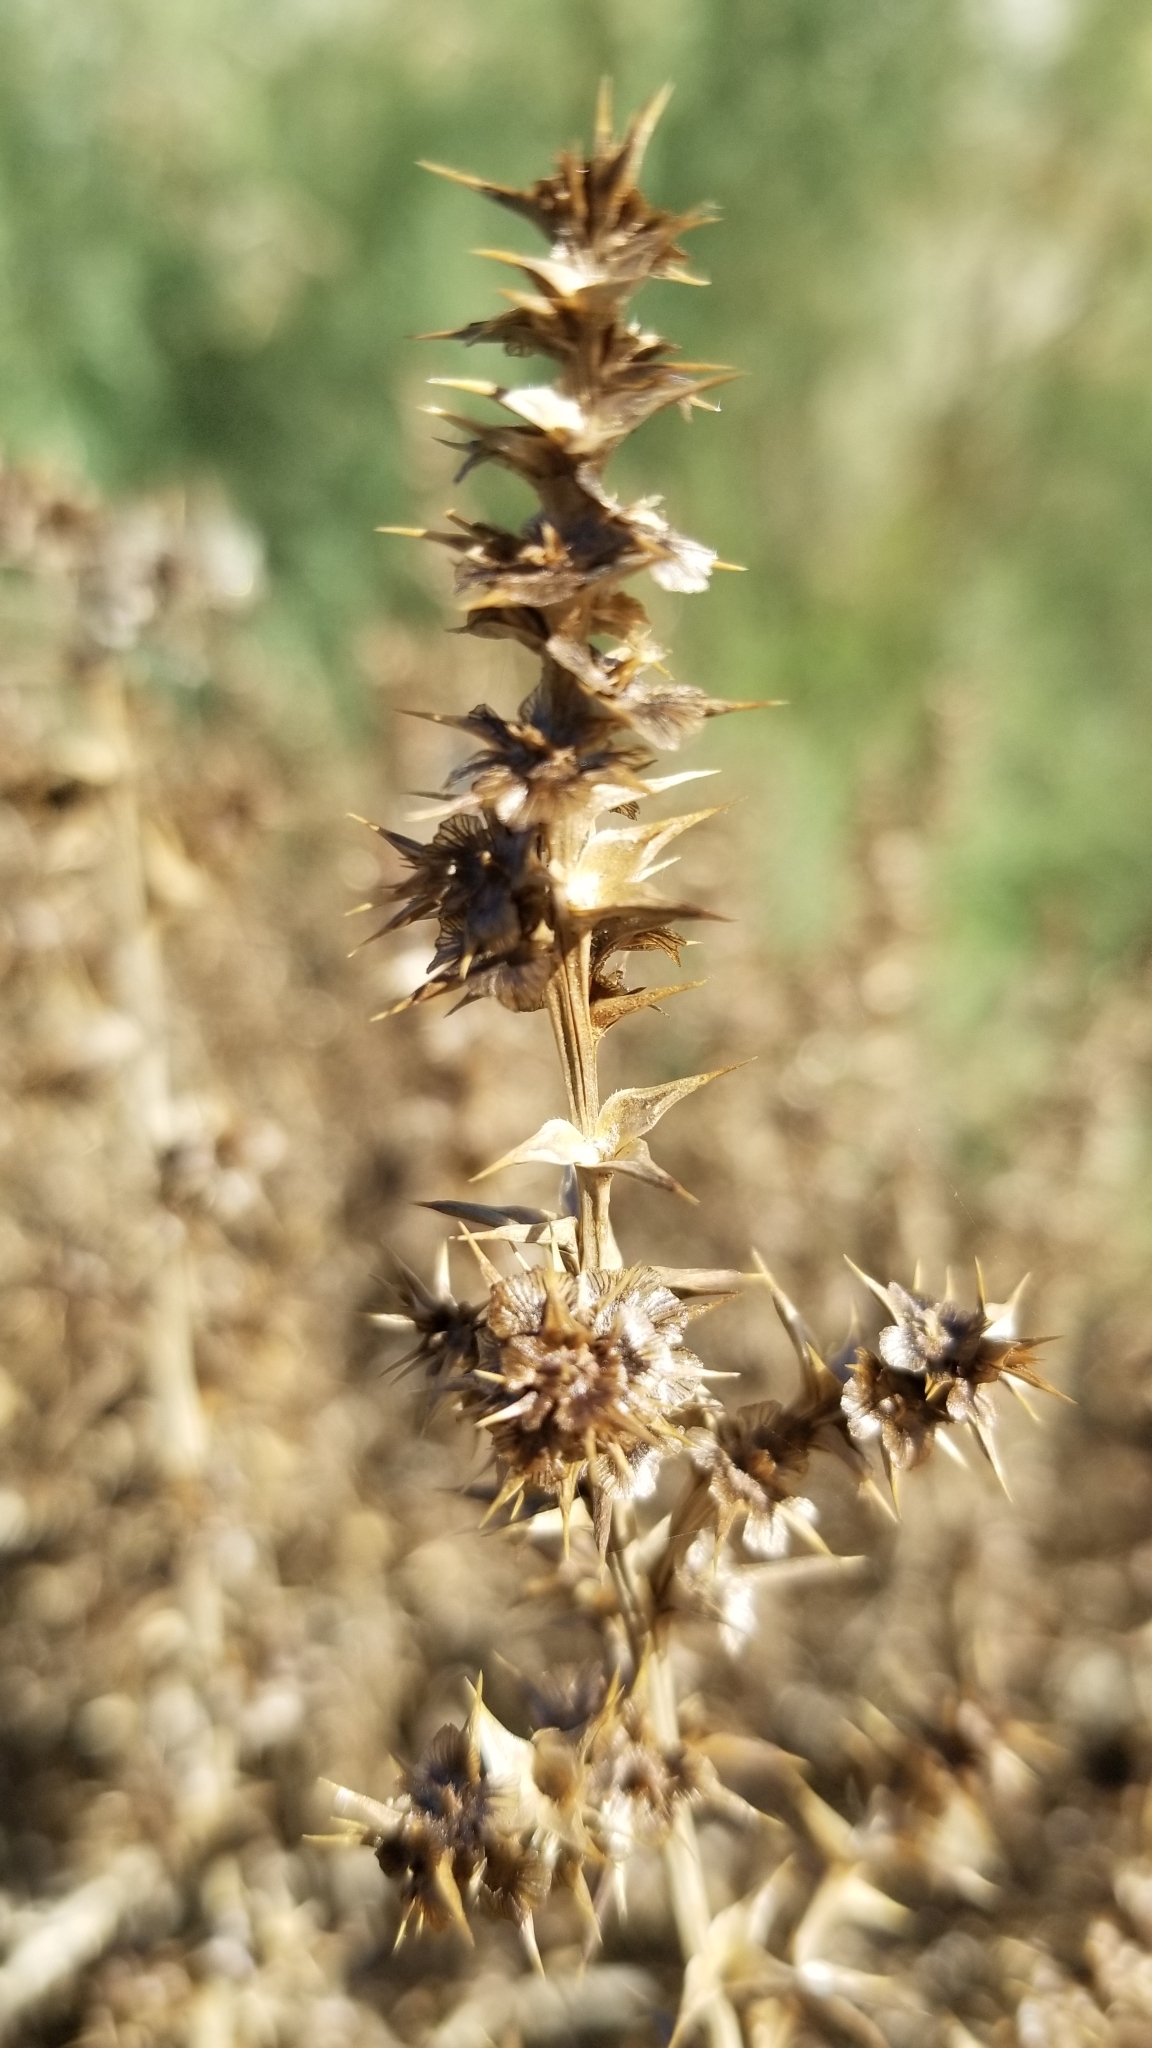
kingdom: Plantae
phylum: Tracheophyta
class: Magnoliopsida
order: Caryophyllales
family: Amaranthaceae
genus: Salsola
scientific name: Salsola tragus
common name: Prickly russian thistle
